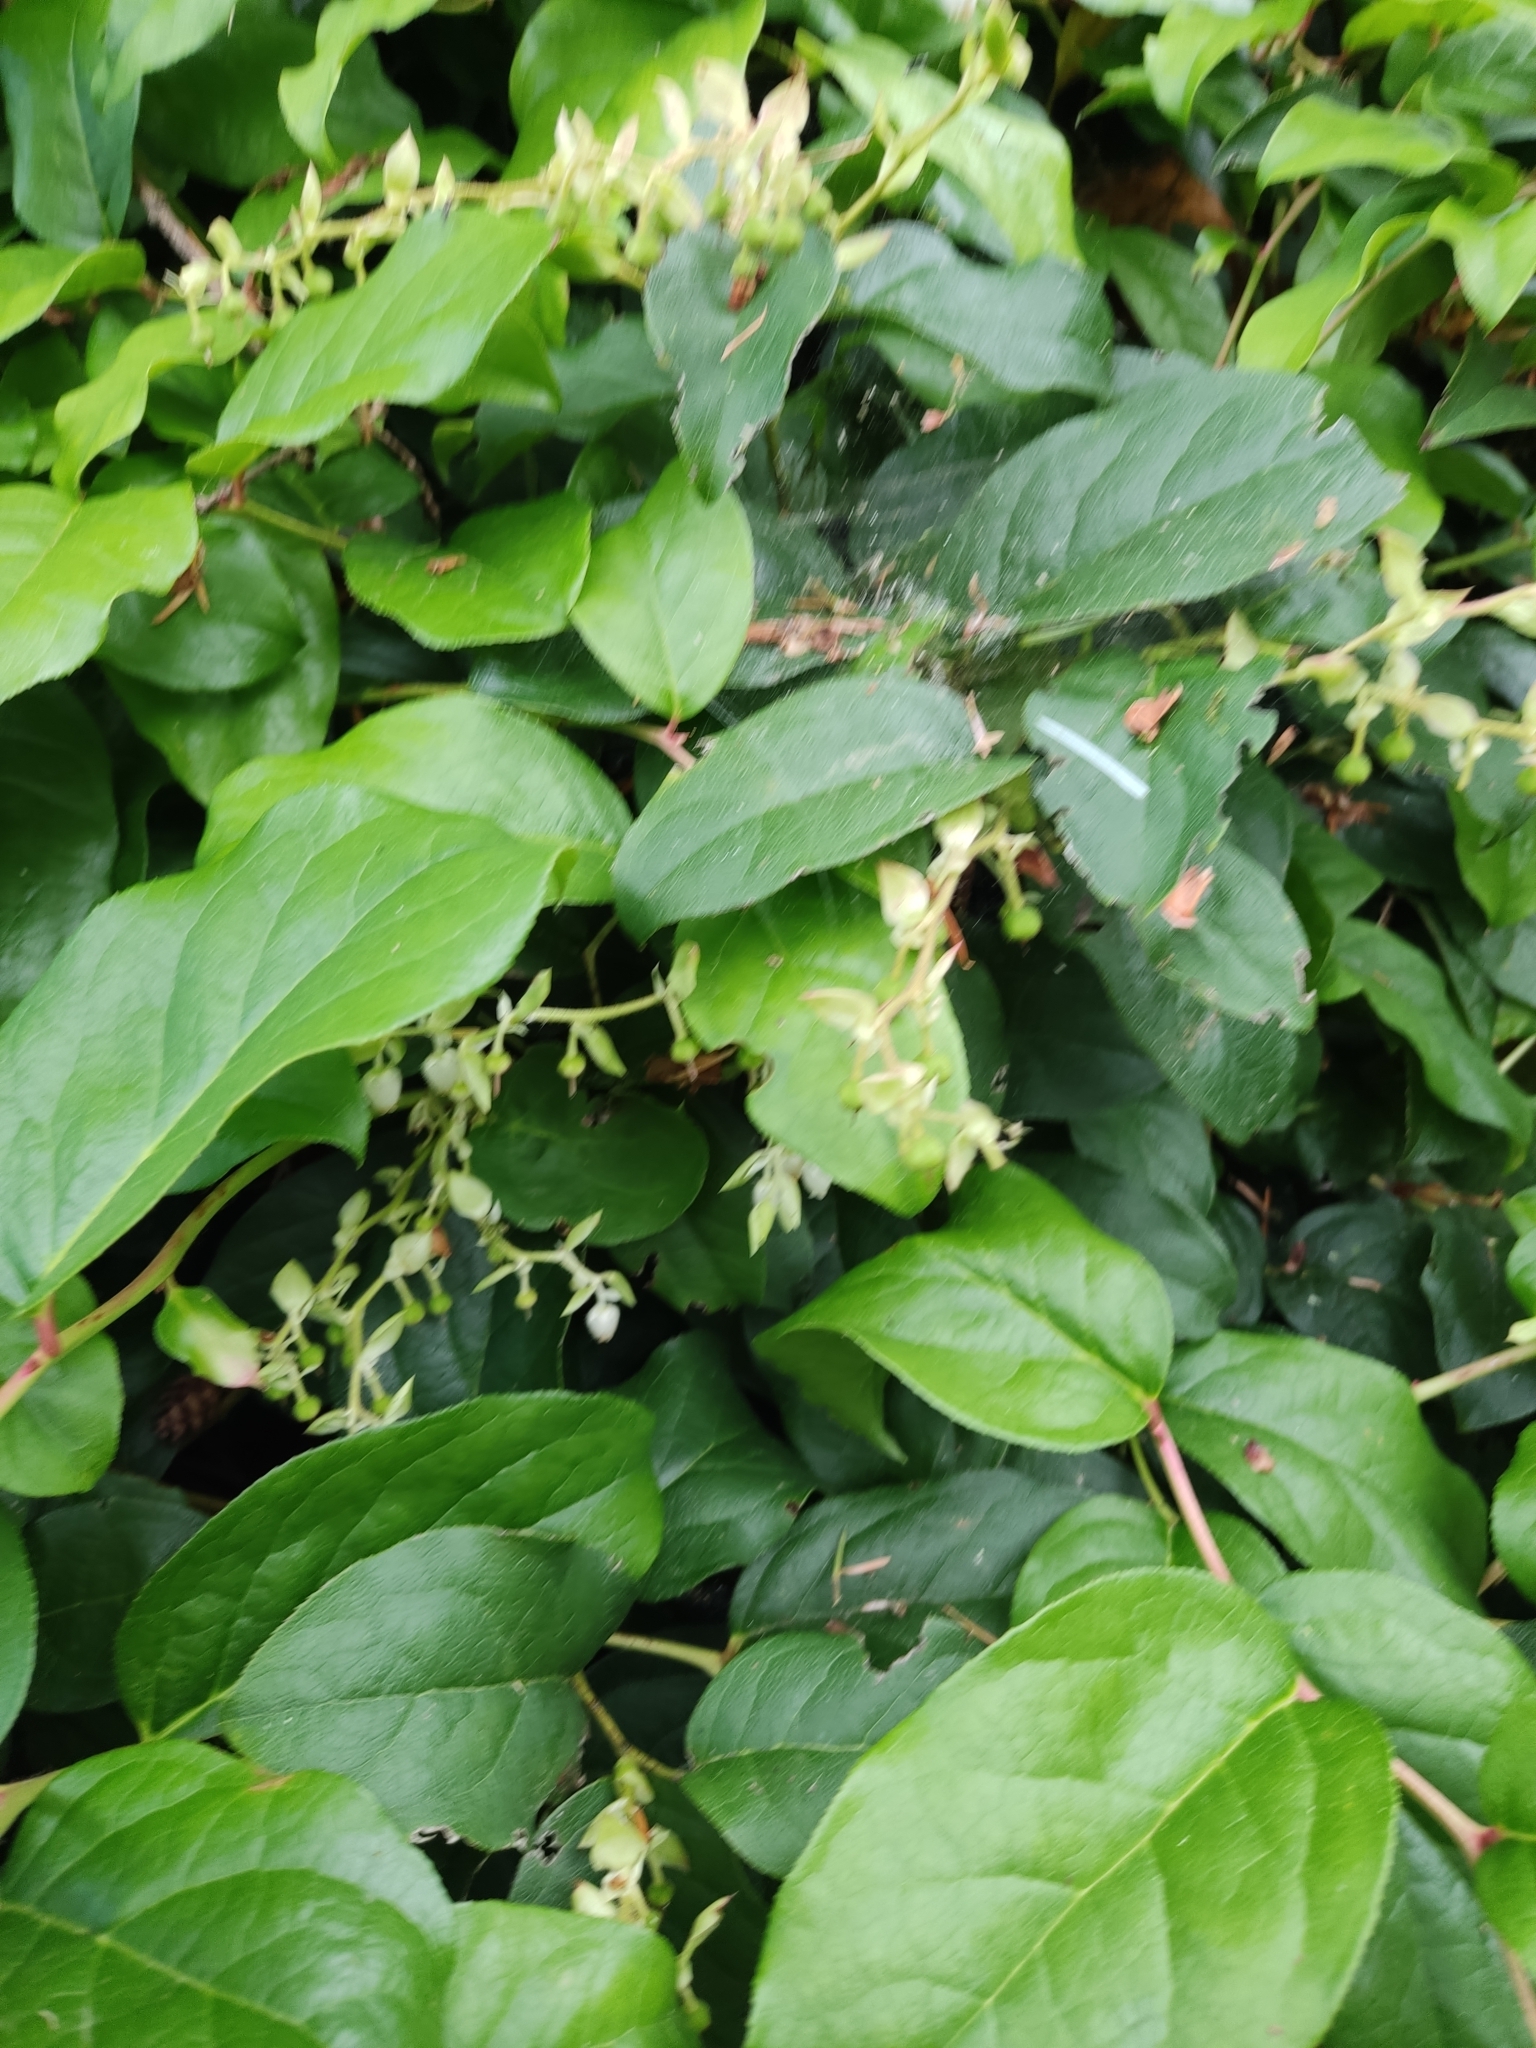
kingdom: Plantae
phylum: Tracheophyta
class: Magnoliopsida
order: Ericales
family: Ericaceae
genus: Gaultheria
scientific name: Gaultheria shallon
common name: Shallon
